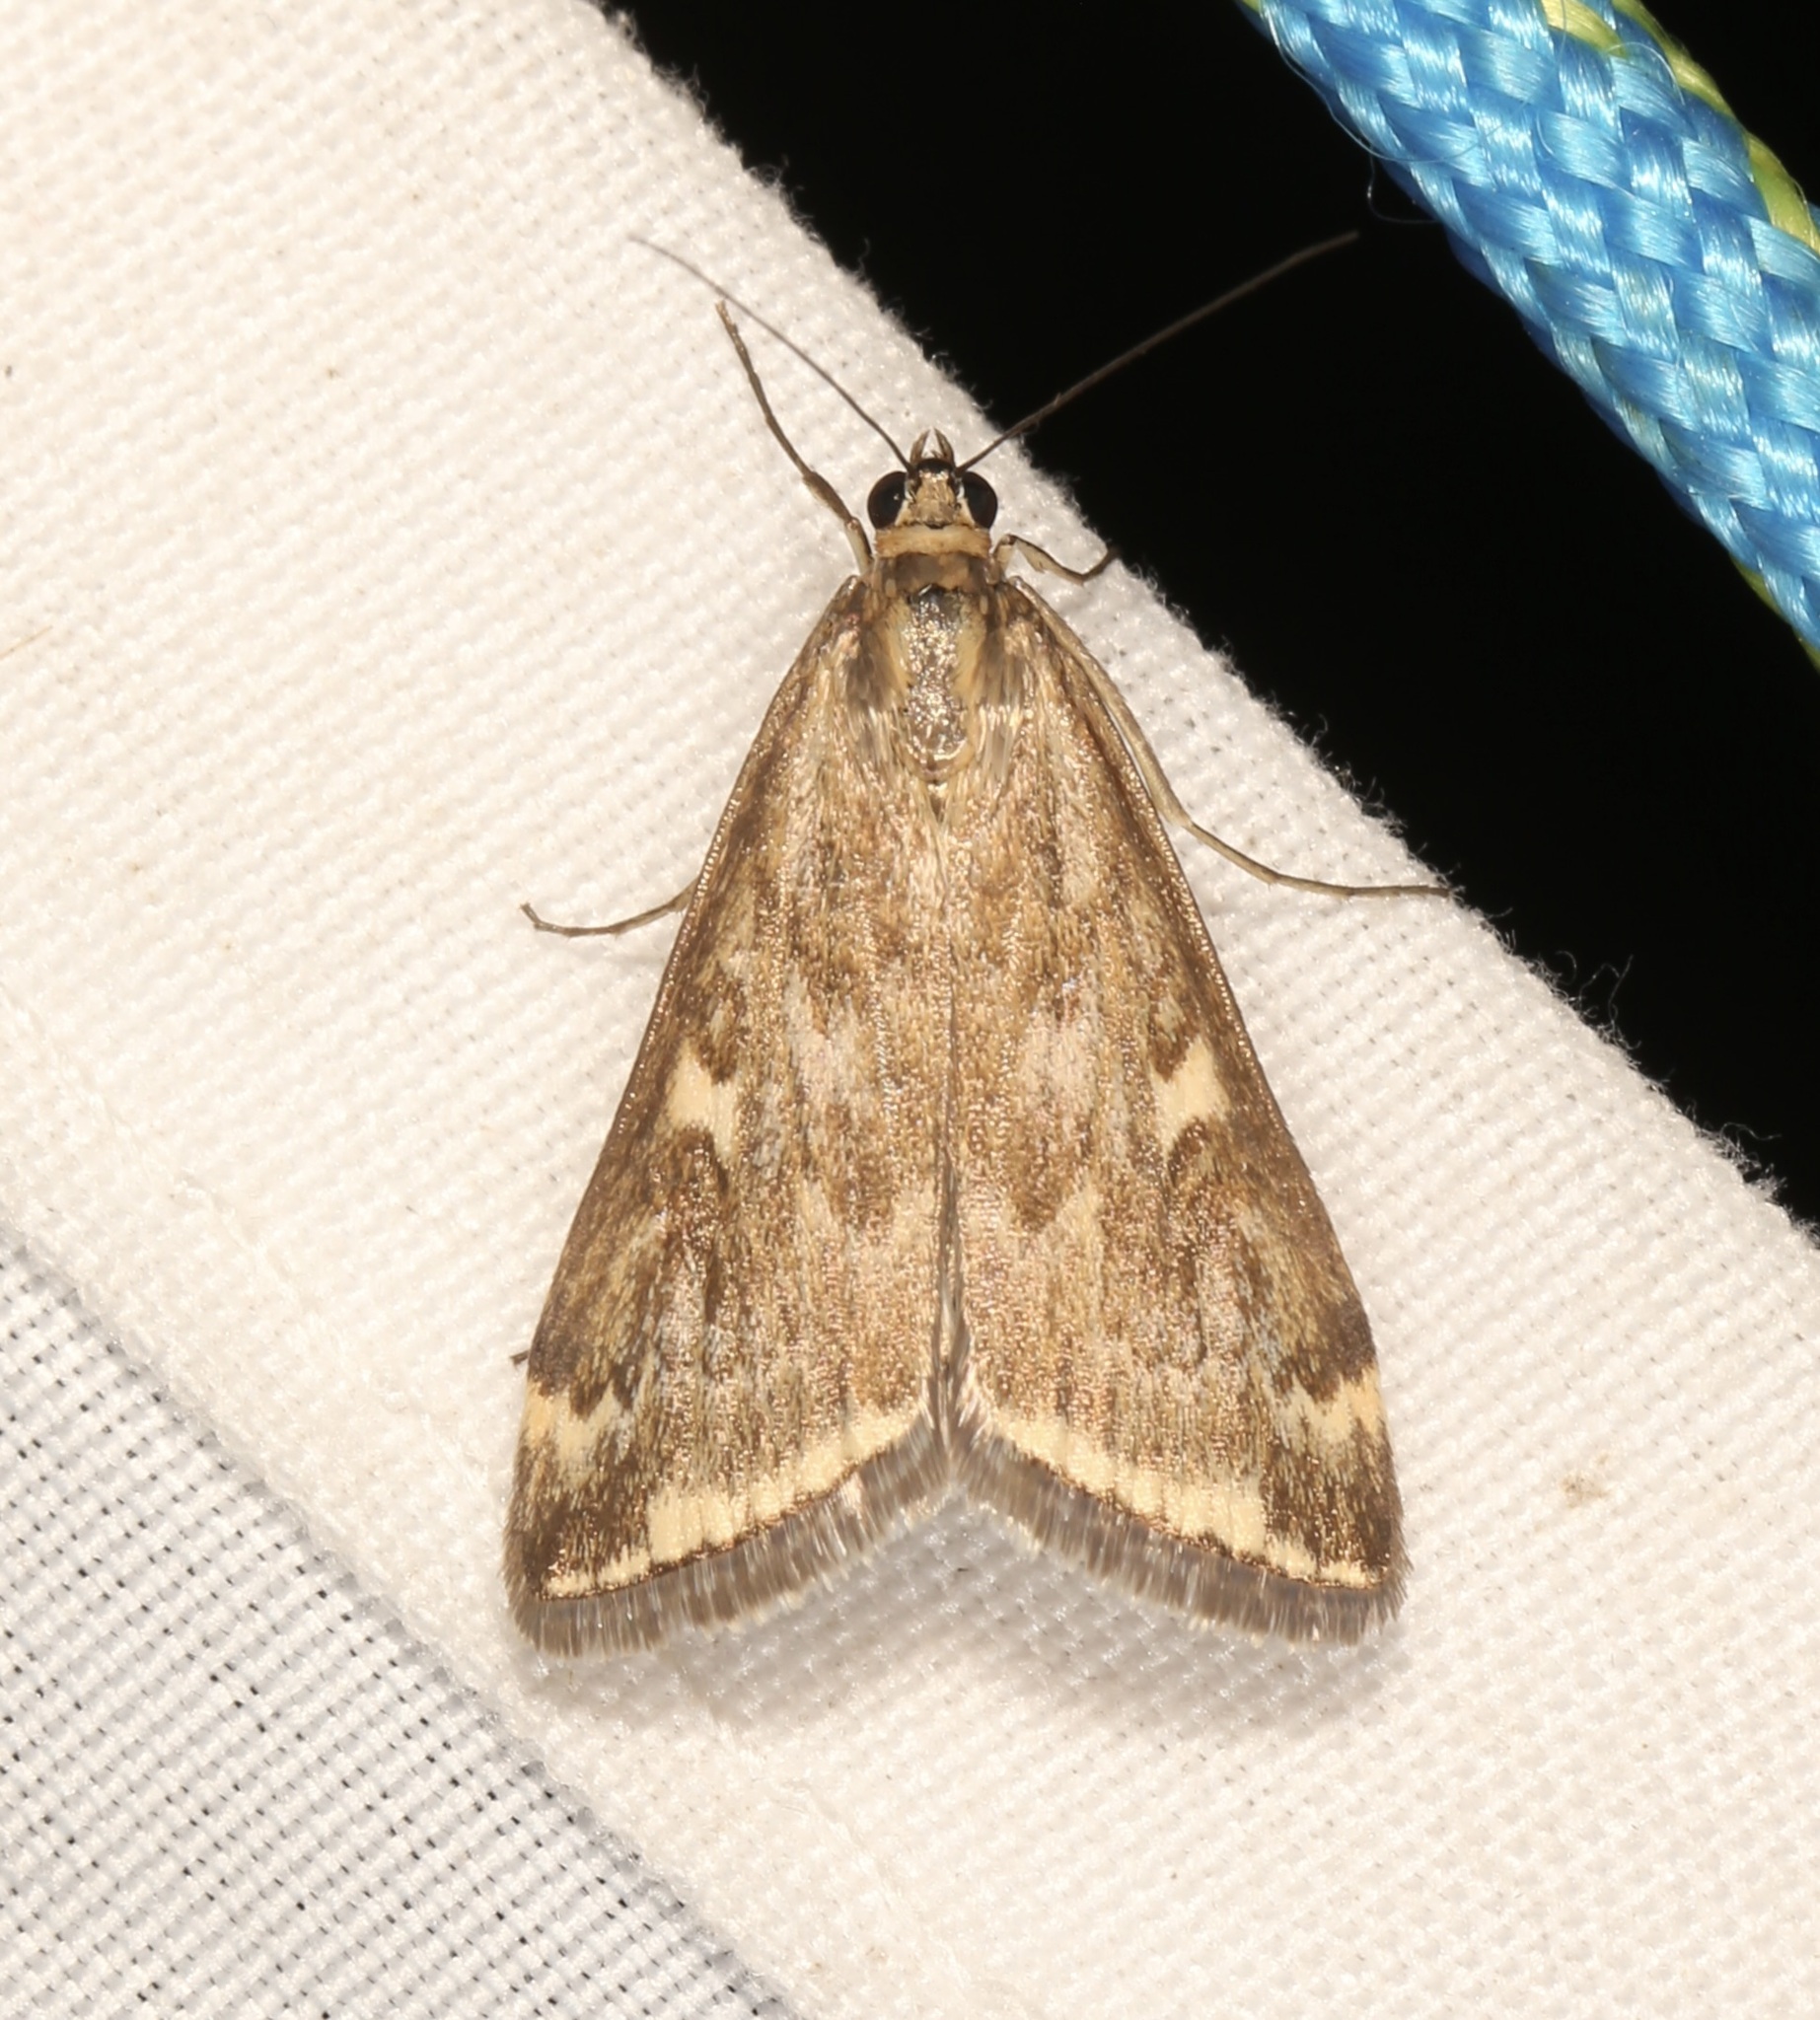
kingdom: Animalia
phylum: Arthropoda
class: Insecta
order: Lepidoptera
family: Crambidae
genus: Loxostege
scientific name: Loxostege cereralis
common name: Alfalfa webworm moth
